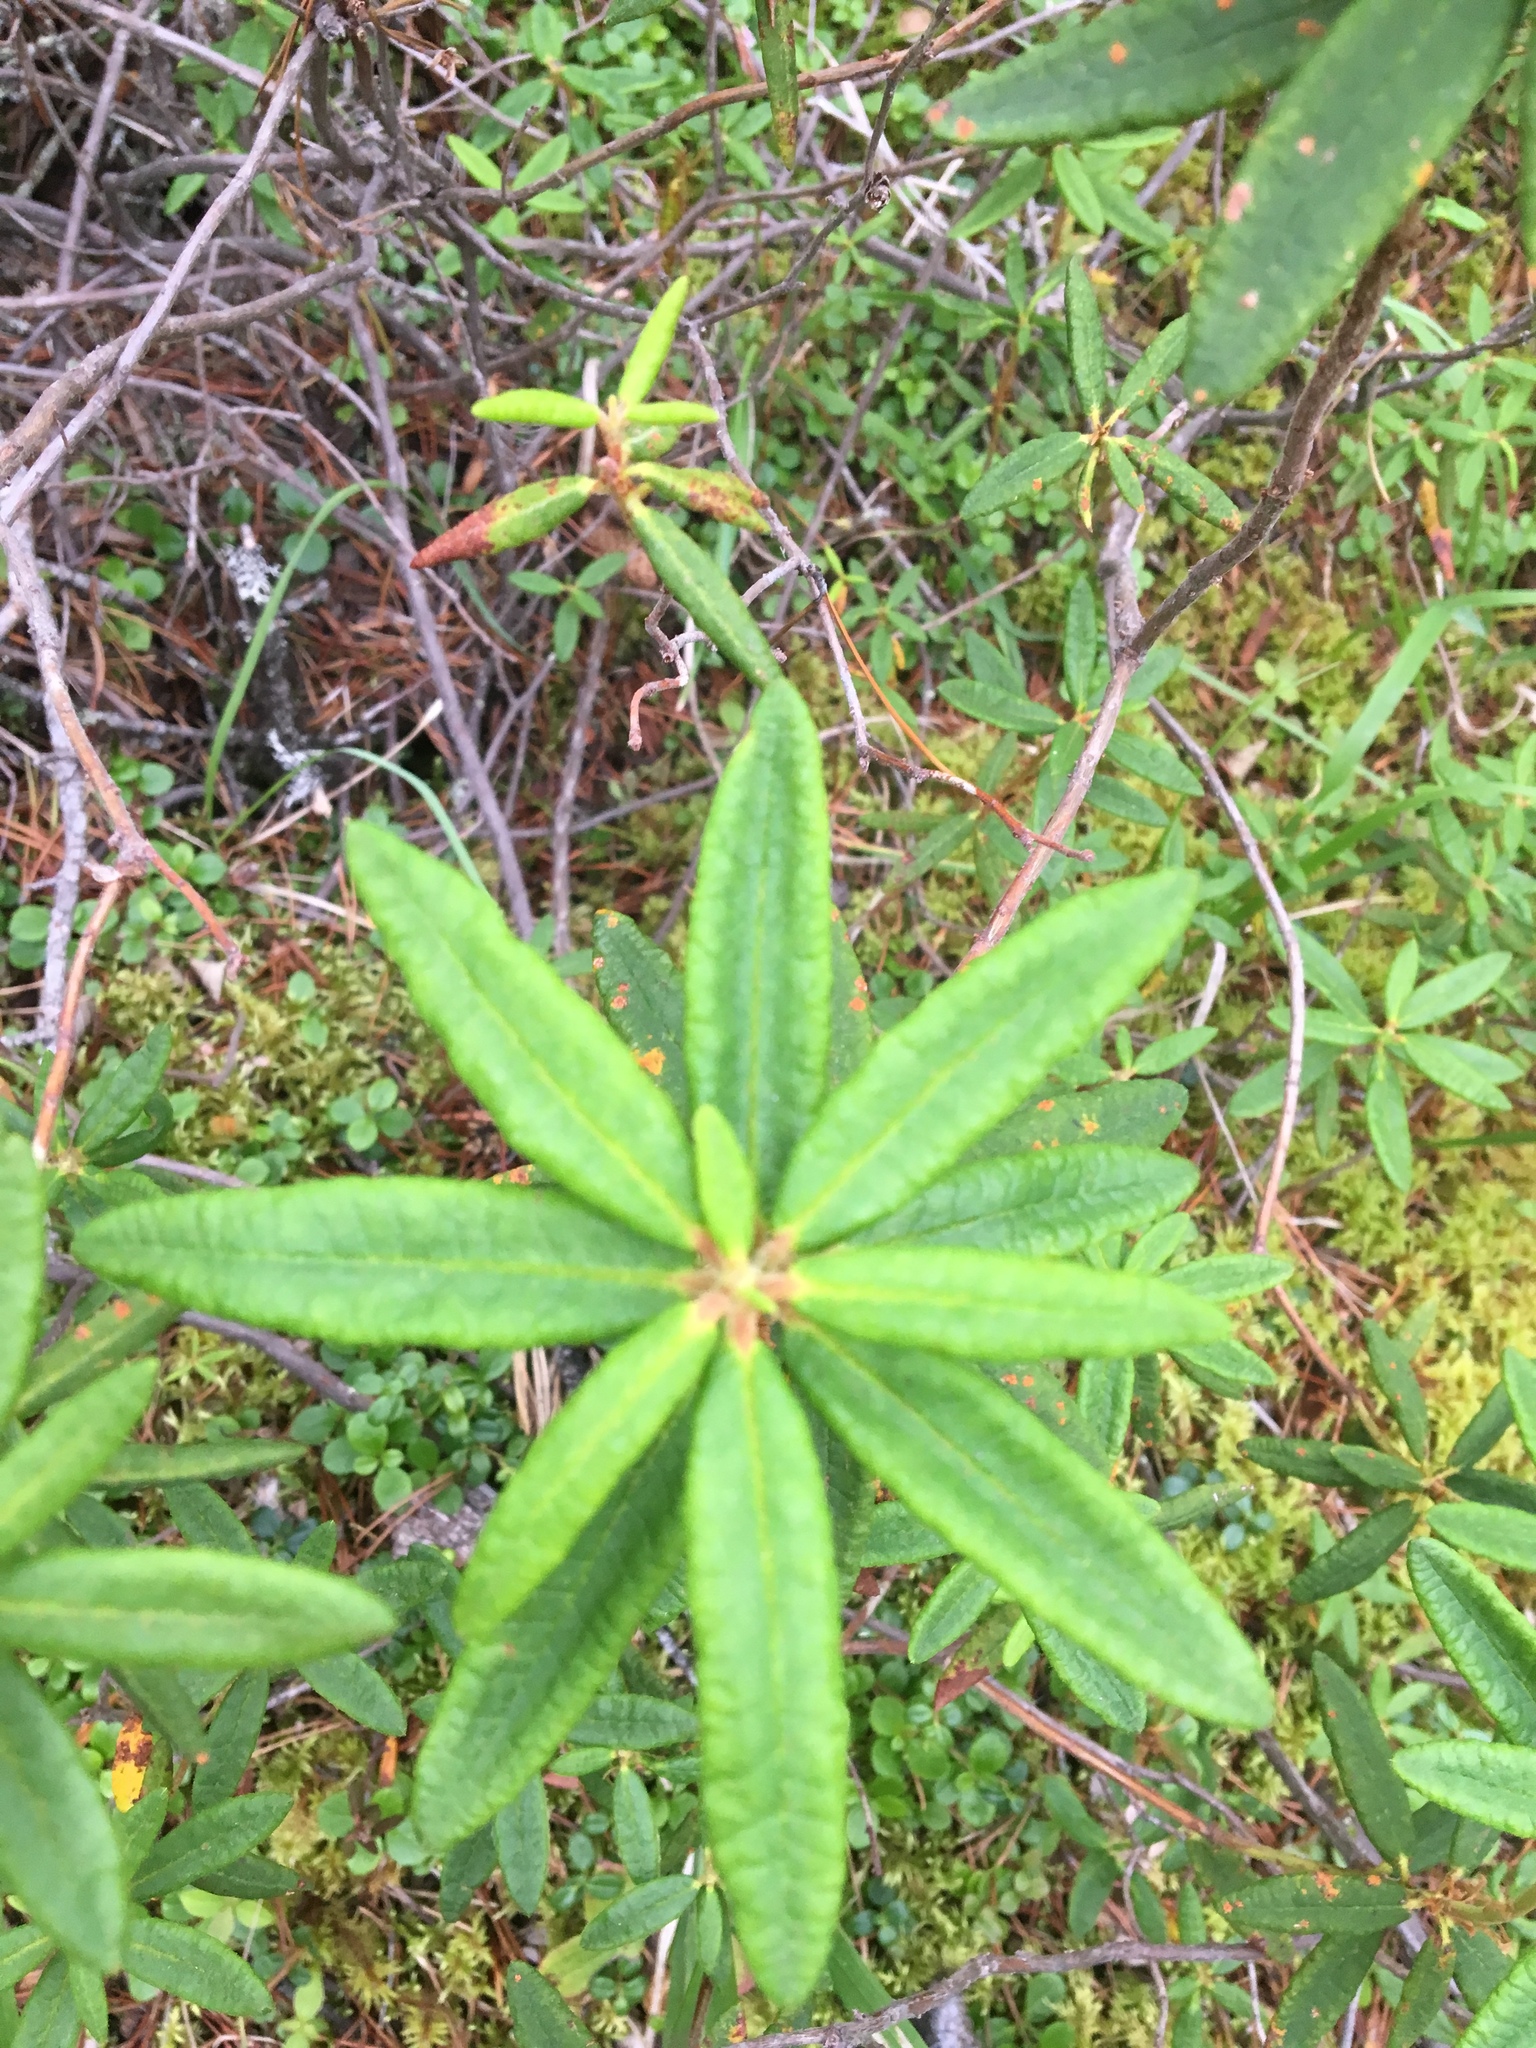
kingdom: Plantae
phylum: Tracheophyta
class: Magnoliopsida
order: Ericales
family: Ericaceae
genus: Rhododendron
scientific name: Rhododendron groenlandicum
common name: Bog labrador tea
